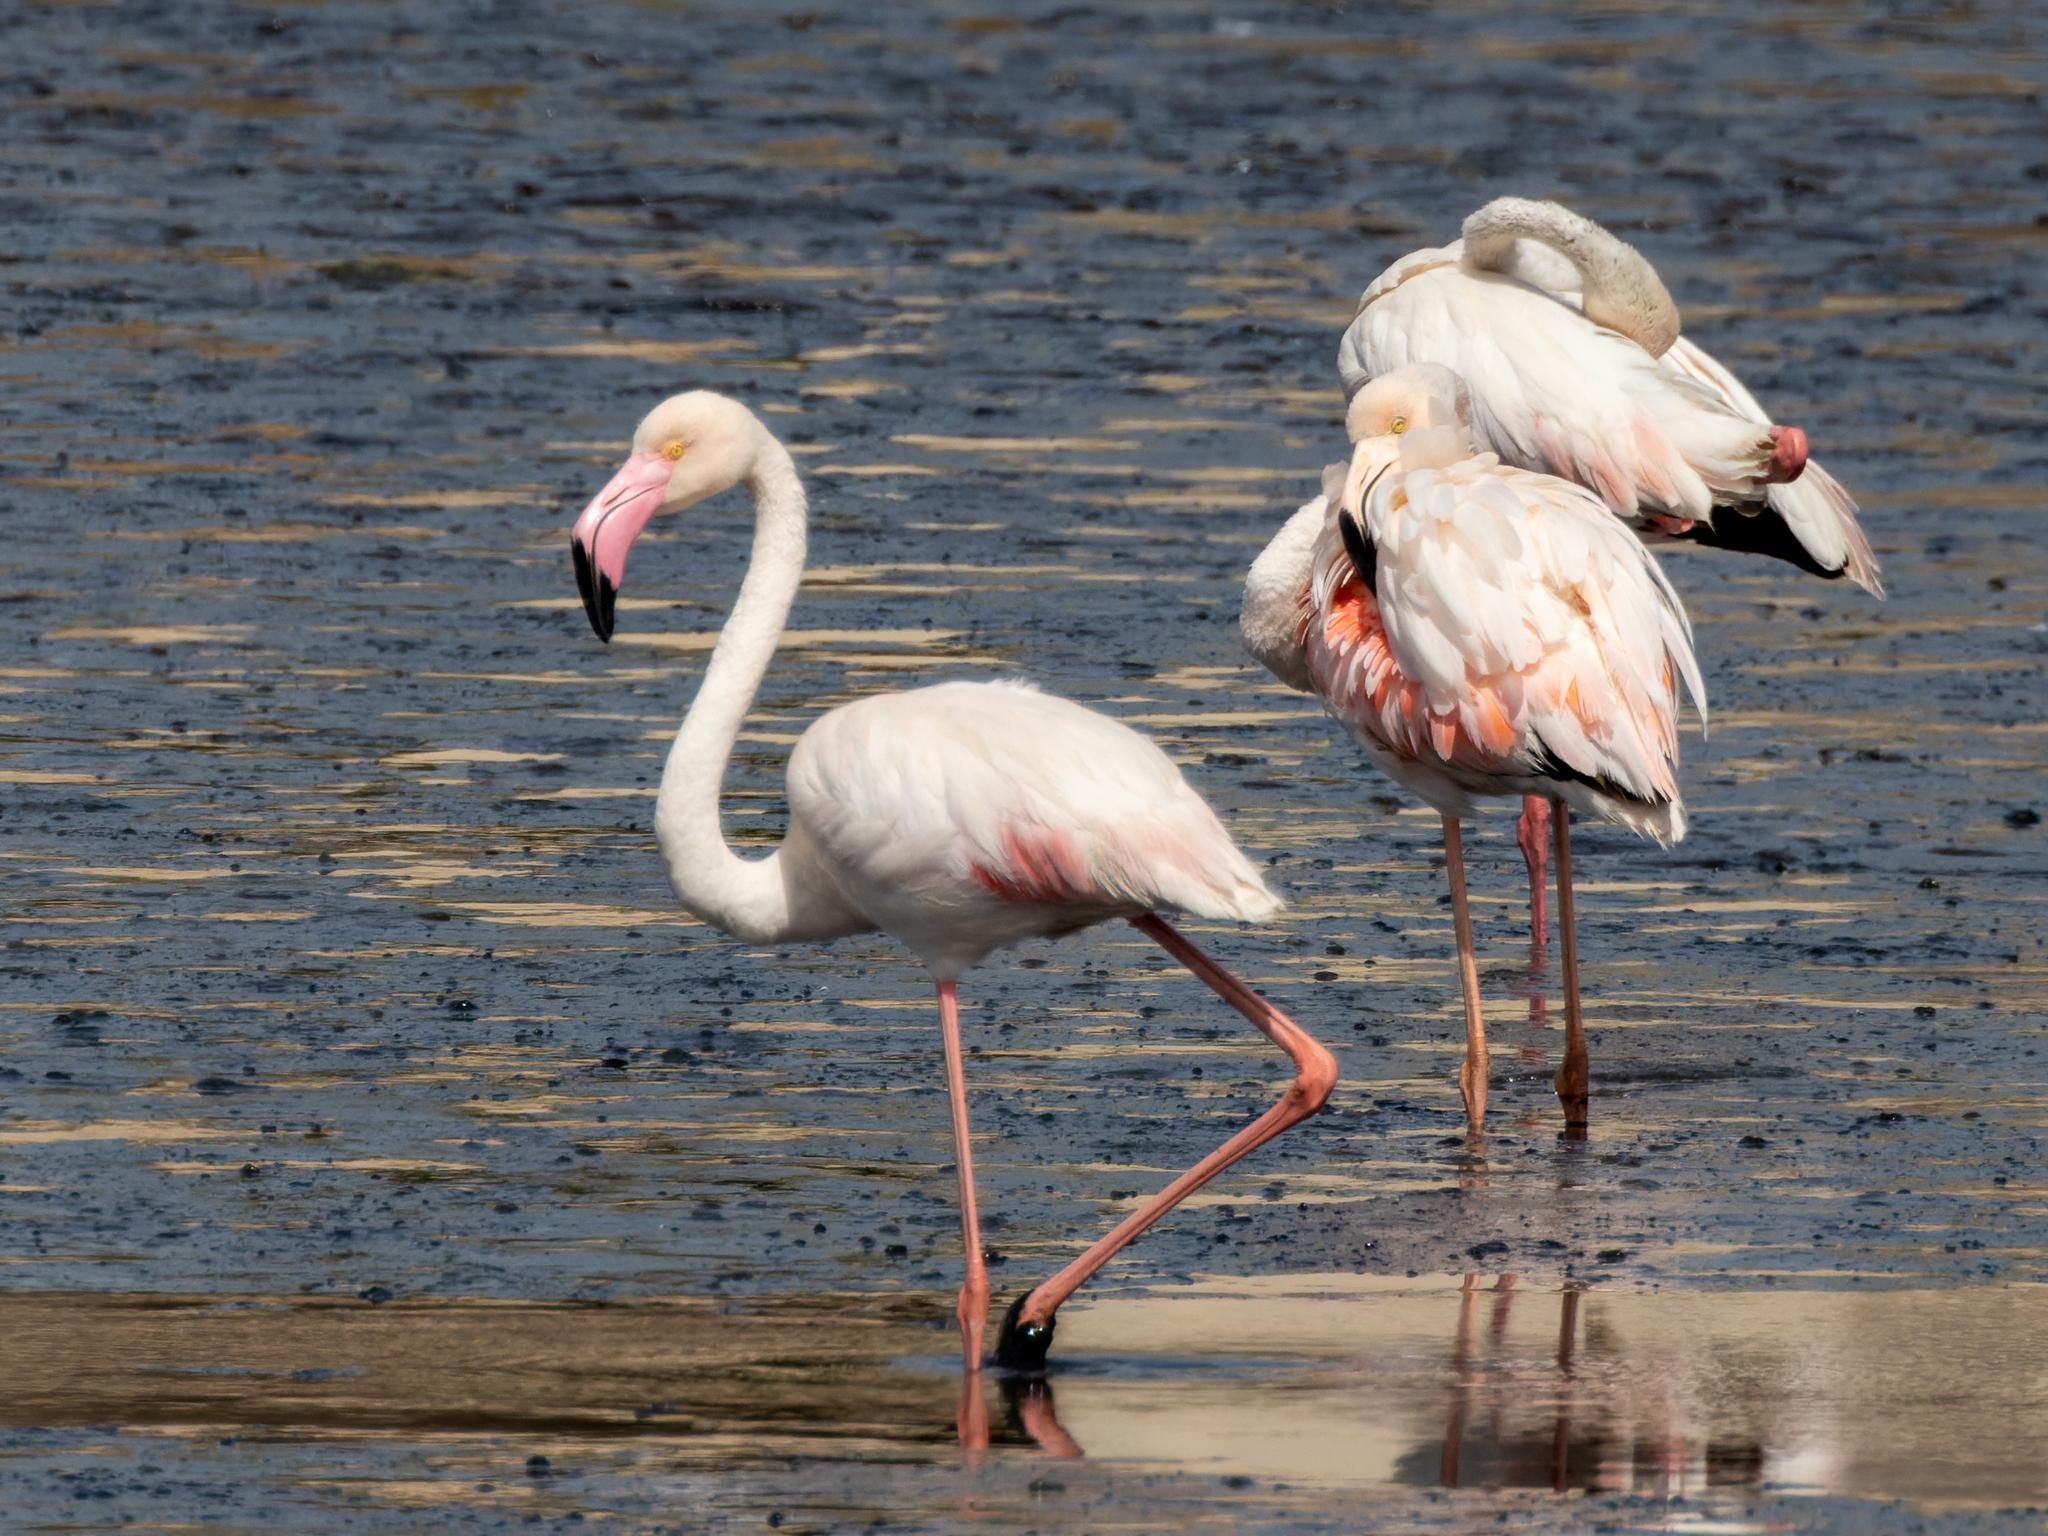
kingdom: Animalia
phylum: Chordata
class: Aves
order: Phoenicopteriformes
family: Phoenicopteridae
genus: Phoenicopterus
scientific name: Phoenicopterus roseus
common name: Greater flamingo
